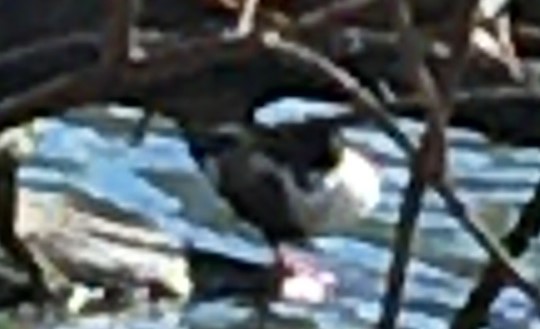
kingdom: Animalia
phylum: Chordata
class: Aves
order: Anseriformes
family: Anatidae
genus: Spatula
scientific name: Spatula clypeata
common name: Northern shoveler
